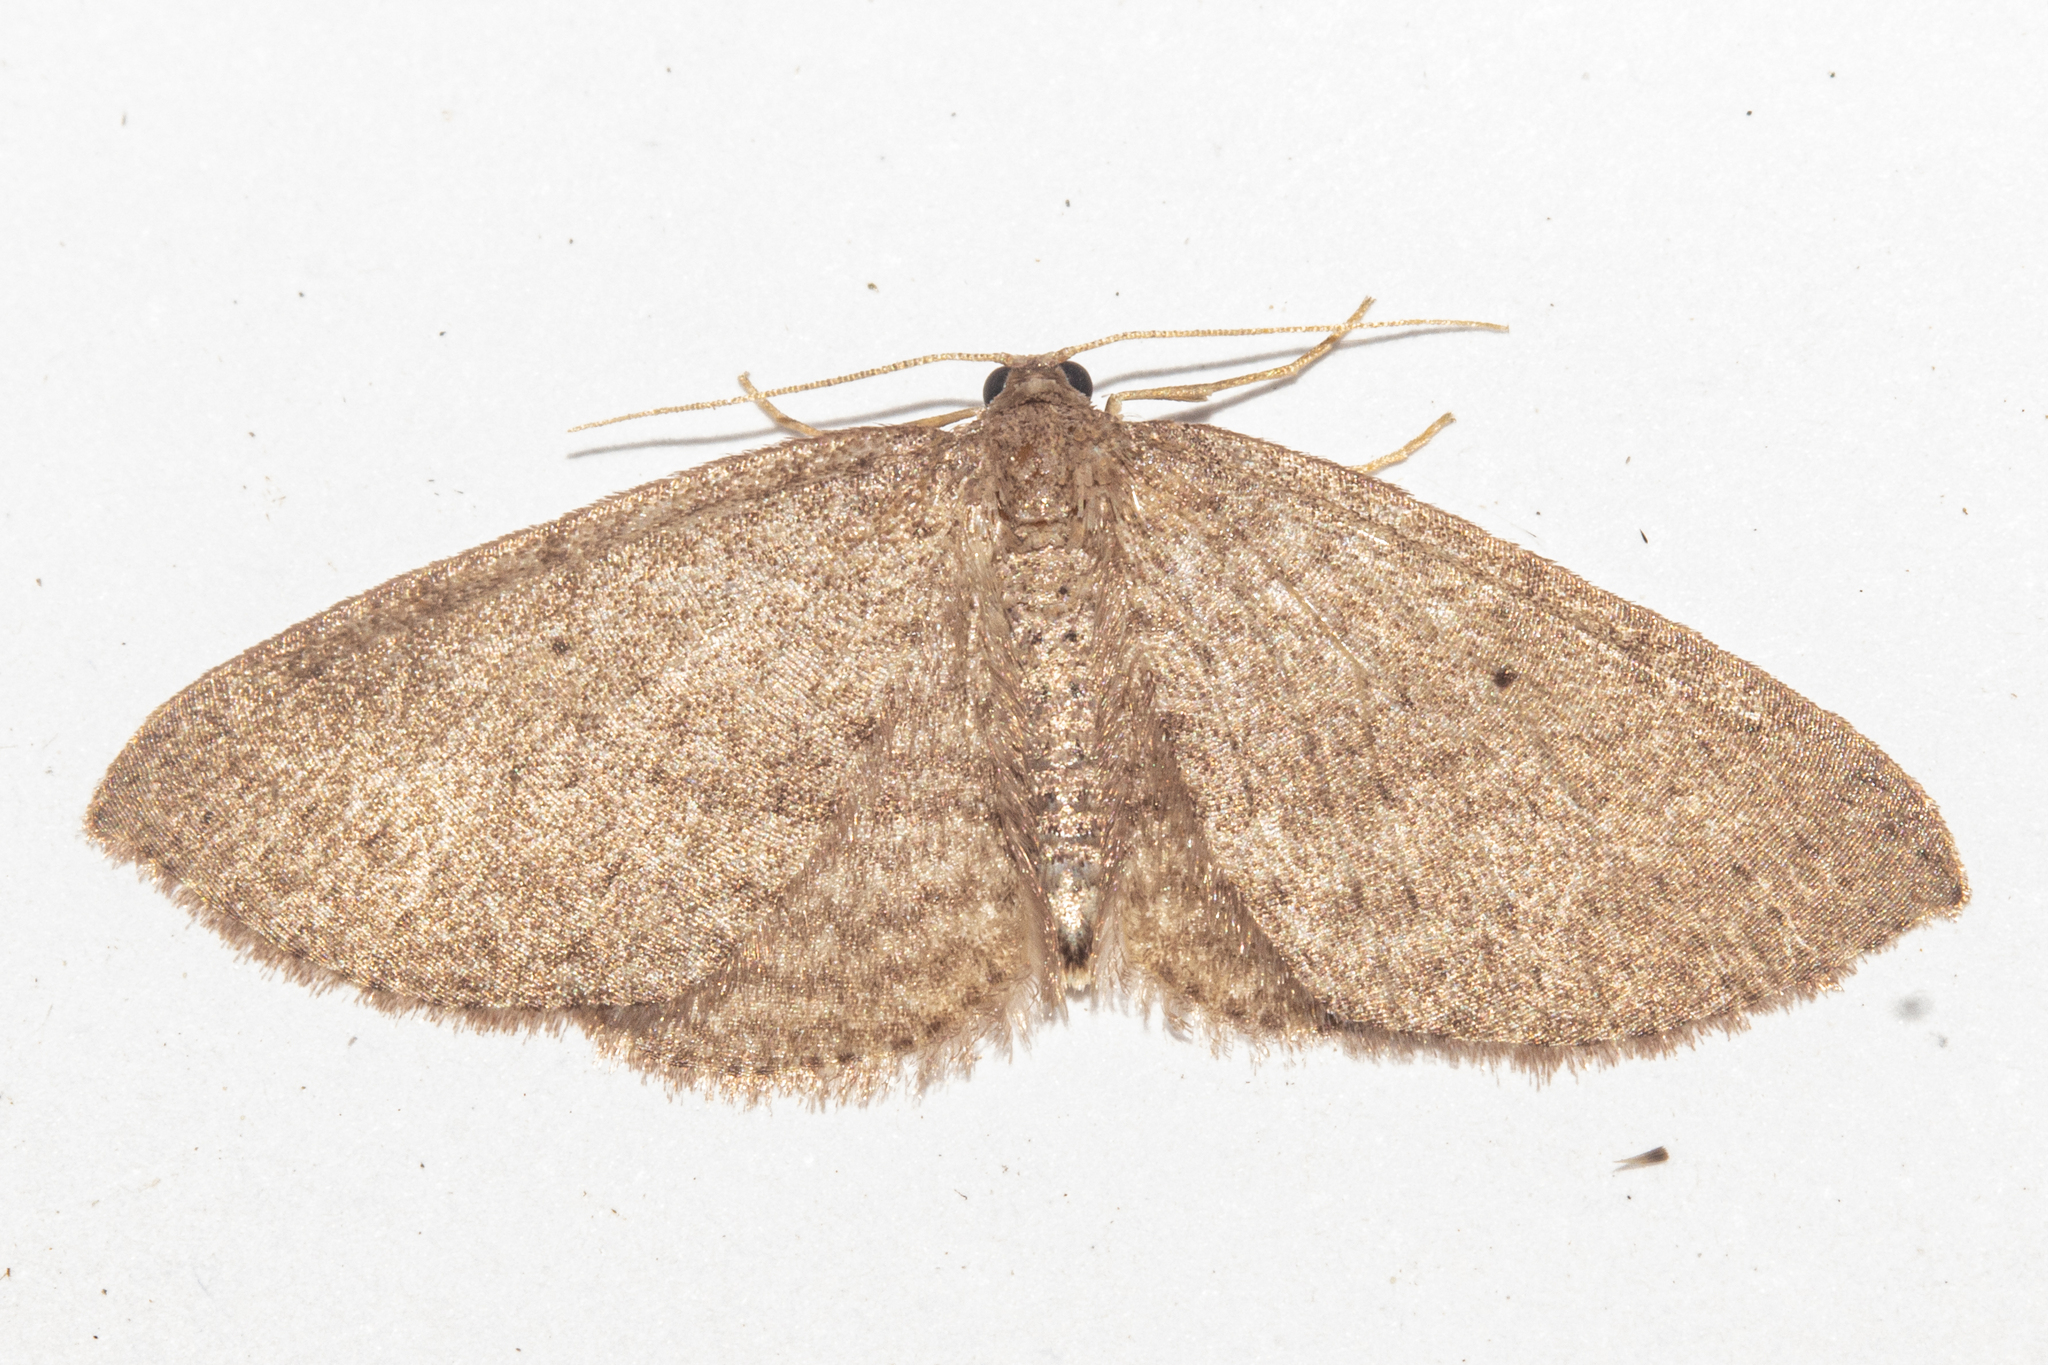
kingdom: Animalia
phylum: Arthropoda
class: Insecta
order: Lepidoptera
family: Geometridae
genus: Poecilasthena
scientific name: Poecilasthena schistaria
